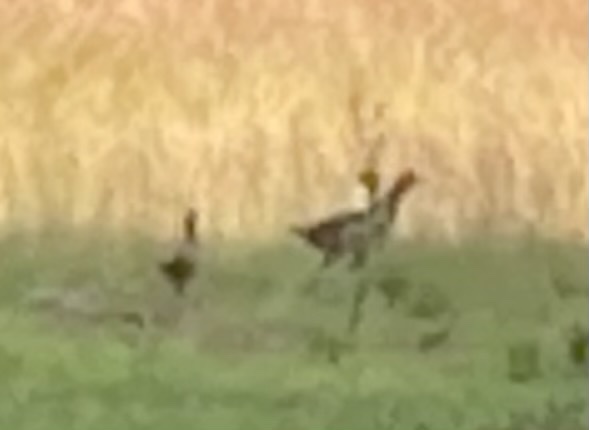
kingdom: Animalia
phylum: Chordata
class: Aves
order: Galliformes
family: Phasianidae
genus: Phasianus
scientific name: Phasianus colchicus
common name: Common pheasant
